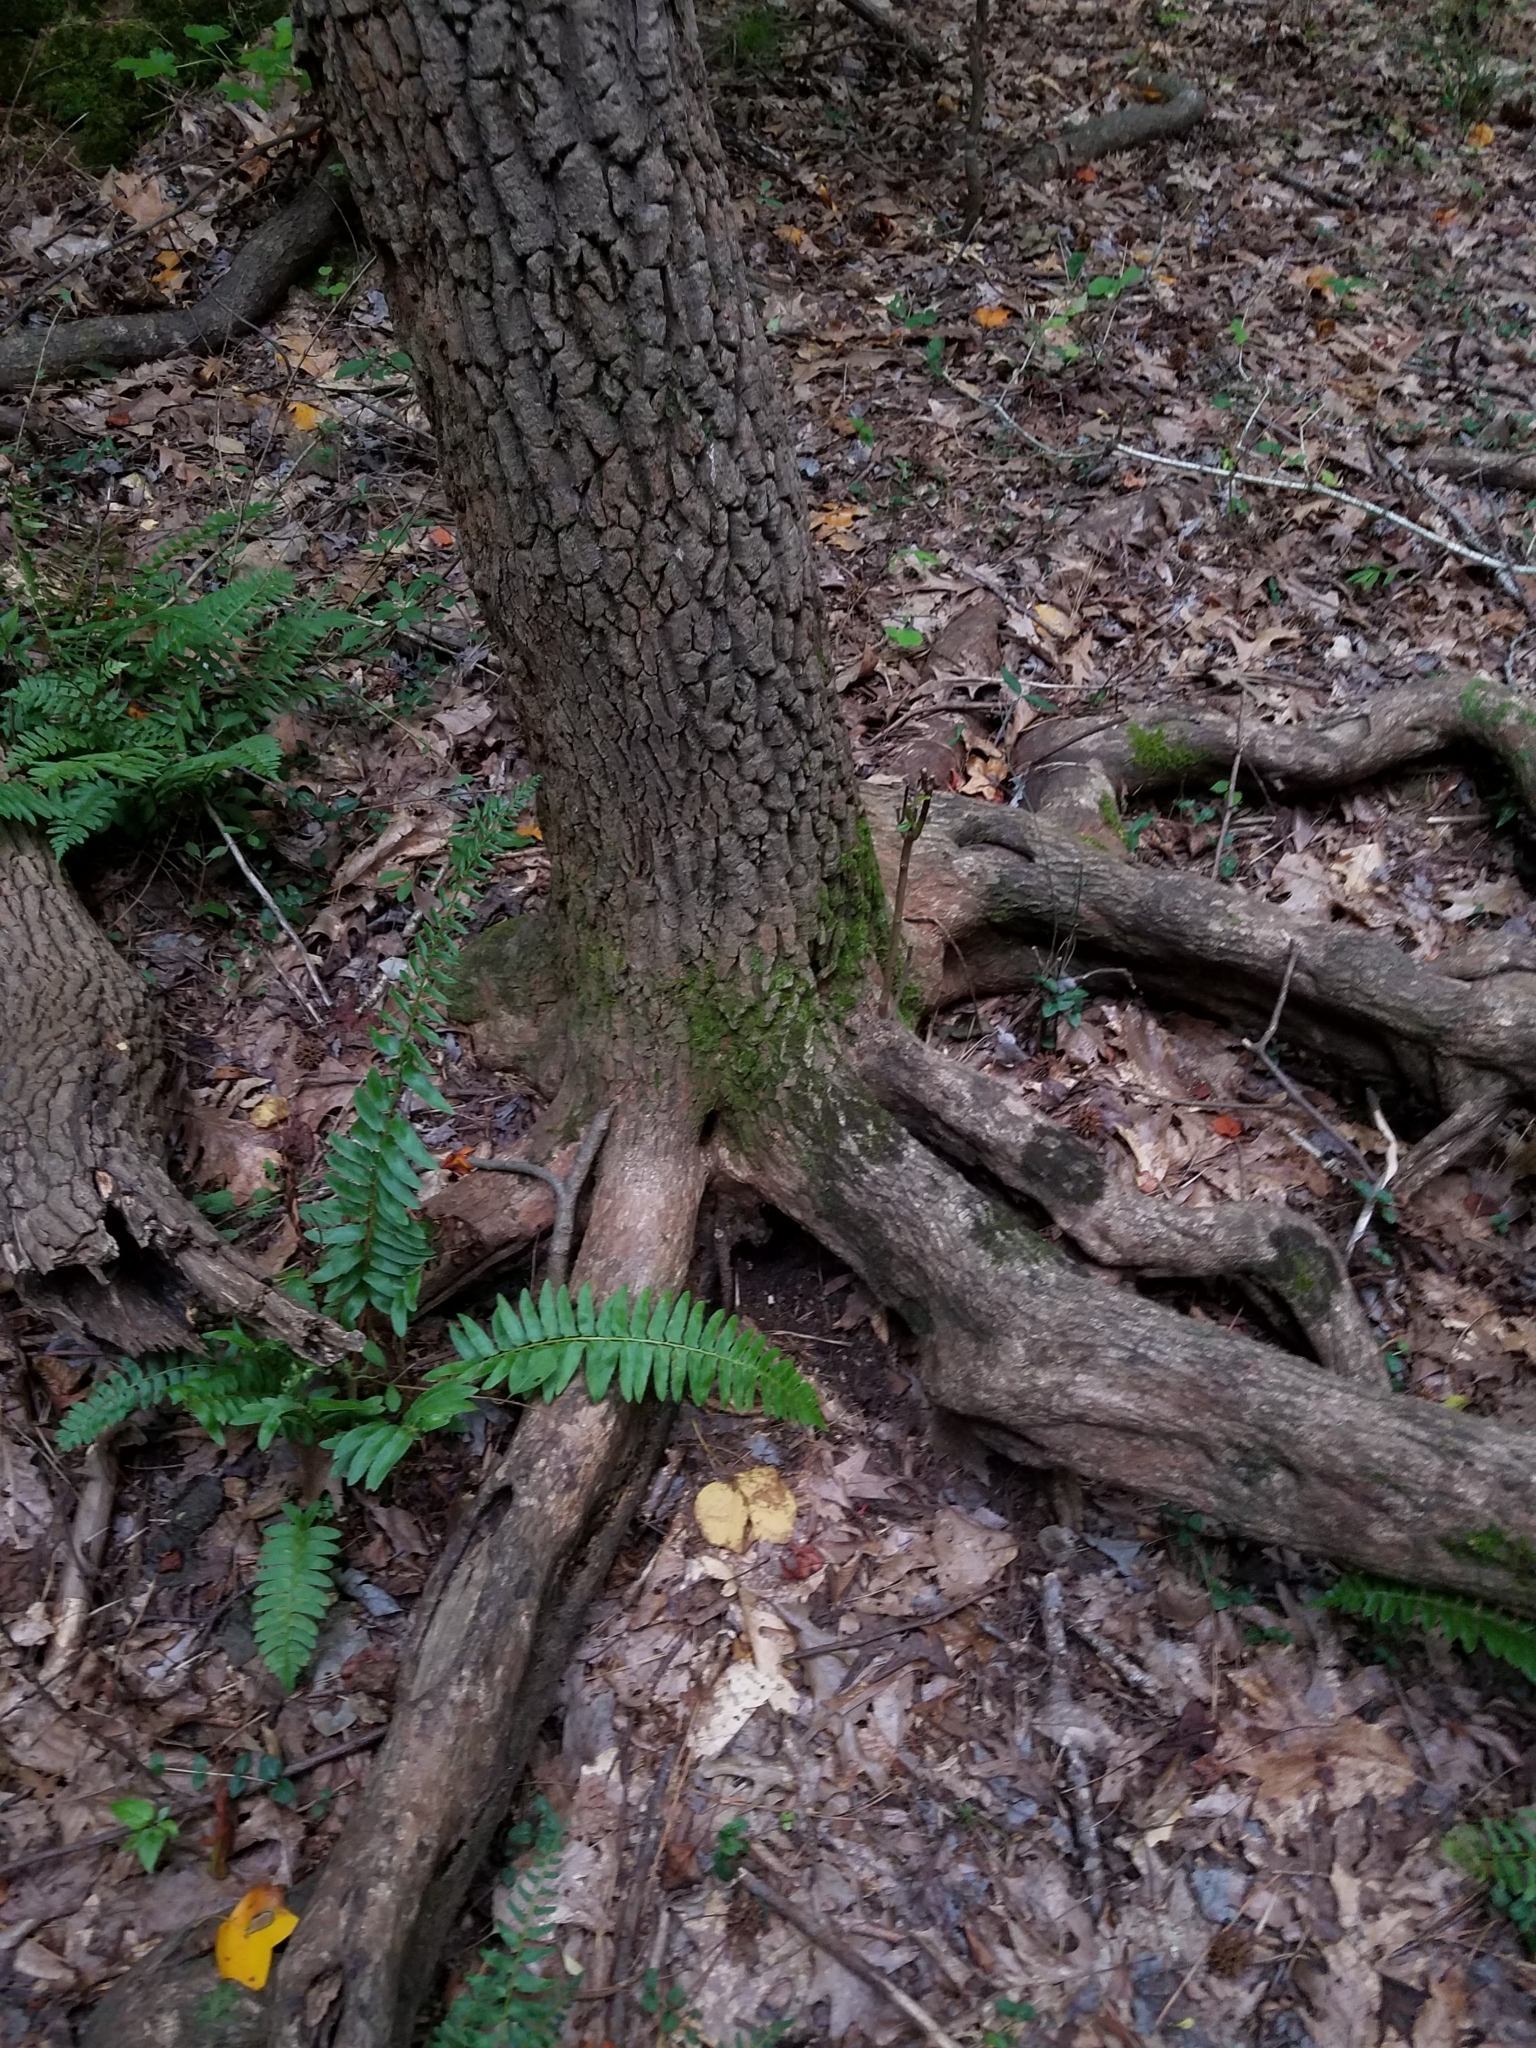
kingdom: Plantae
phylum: Tracheophyta
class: Magnoliopsida
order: Ericales
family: Ericaceae
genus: Oxydendrum
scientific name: Oxydendrum arboreum
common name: Sourwood
